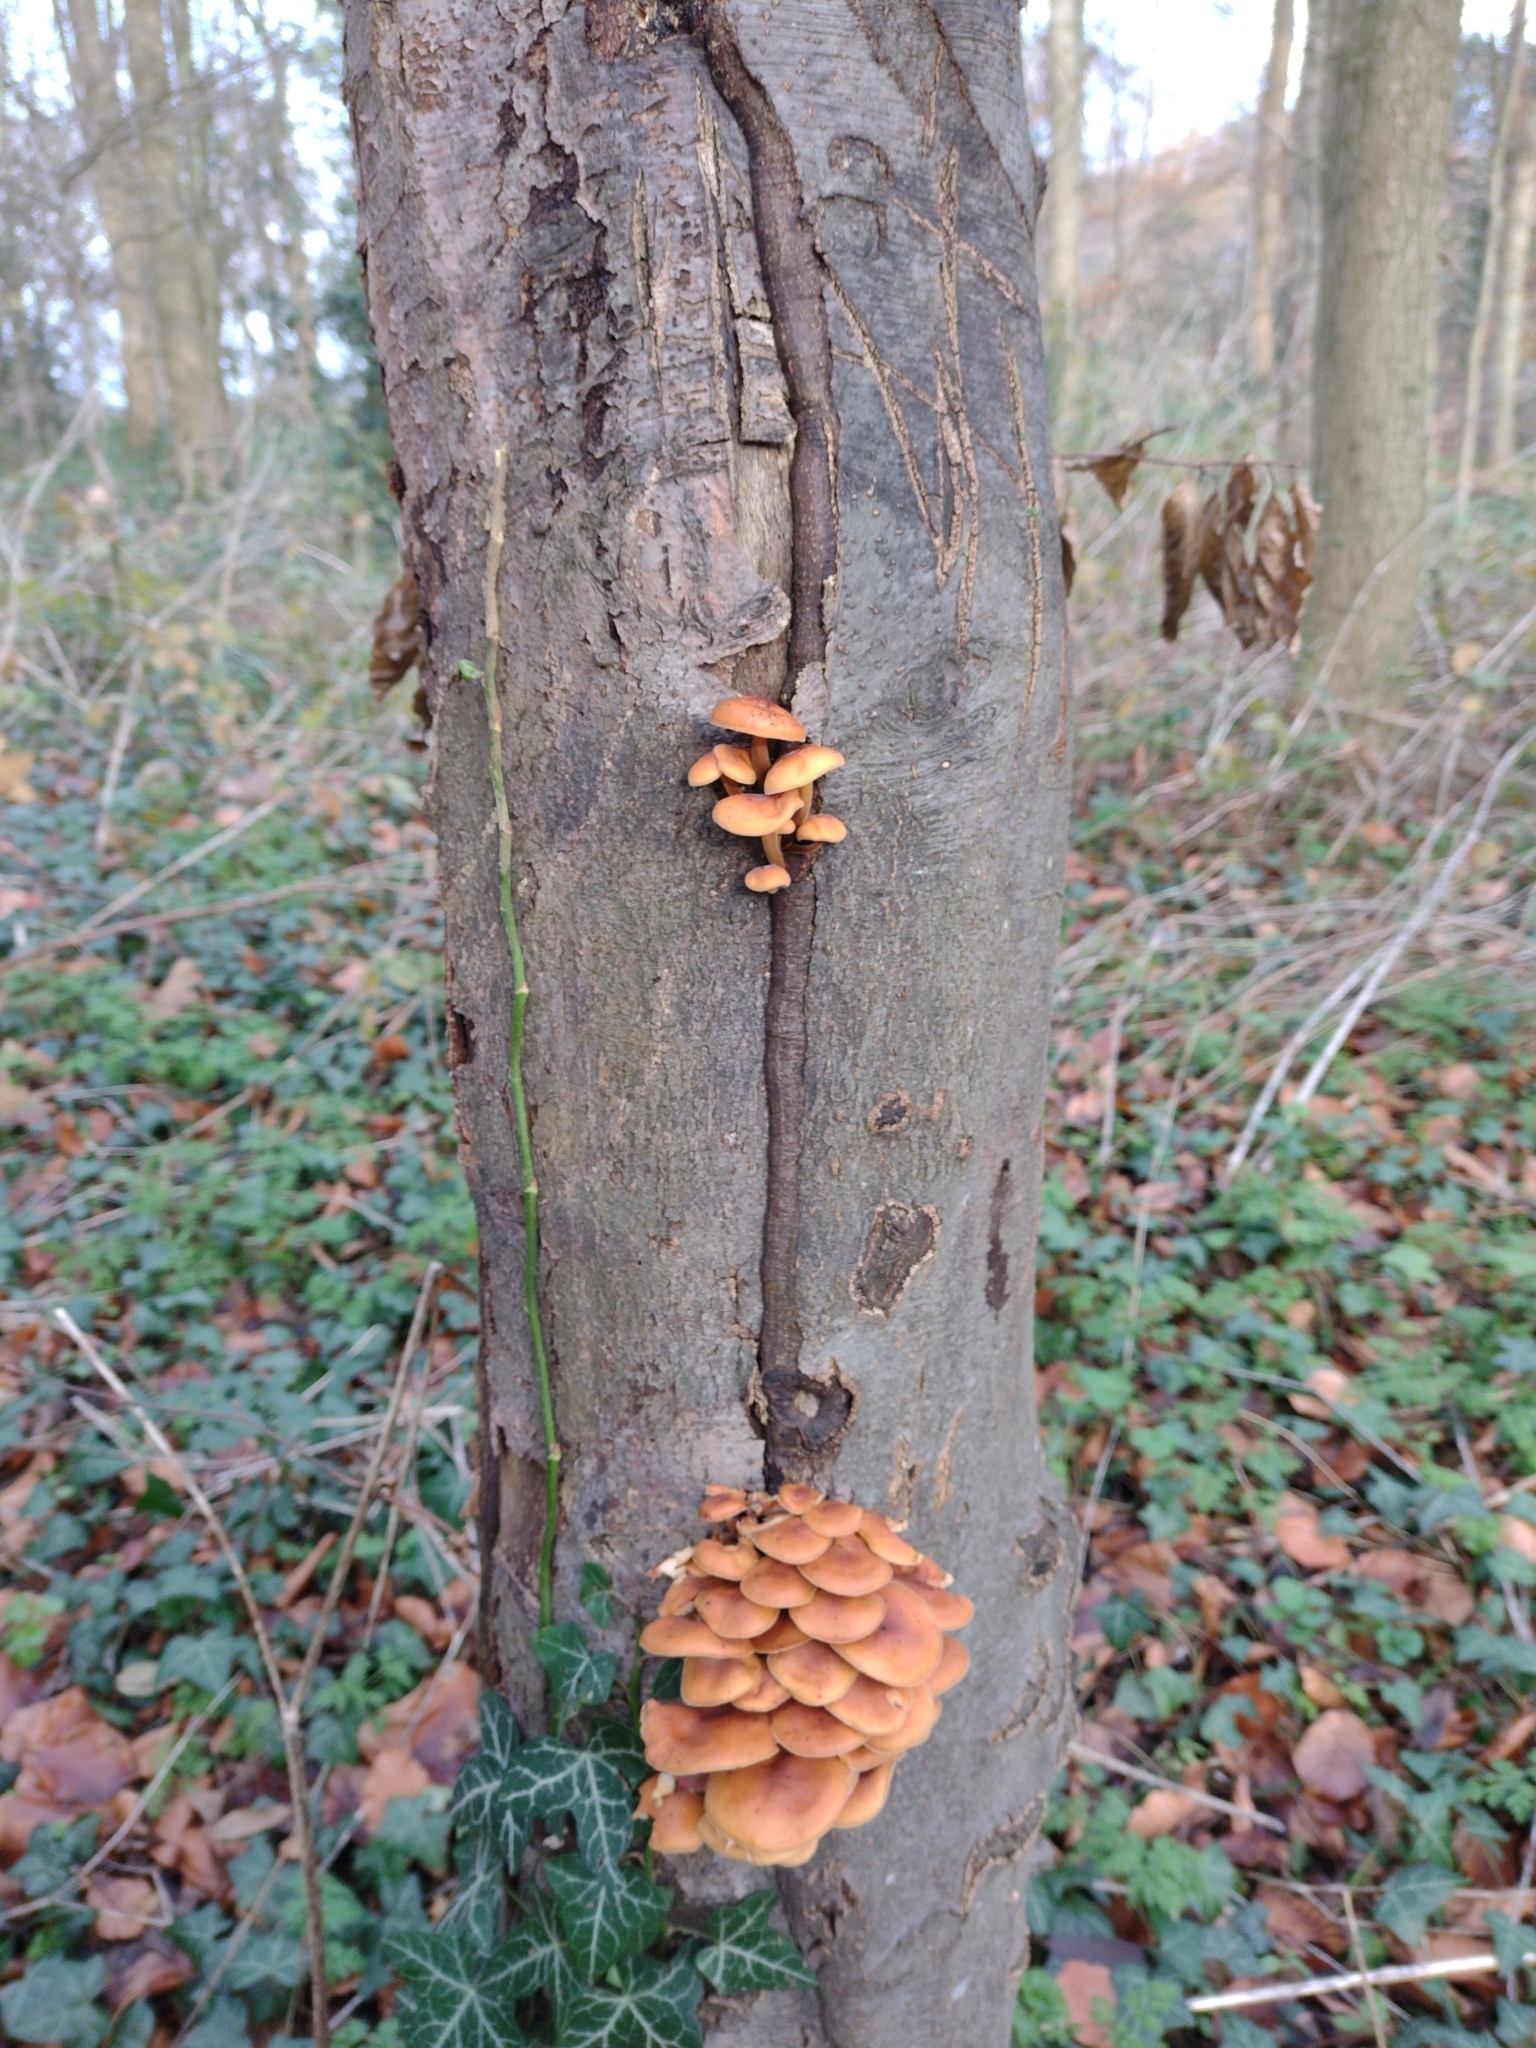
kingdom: Fungi
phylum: Basidiomycota
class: Agaricomycetes
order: Agaricales
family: Physalacriaceae
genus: Flammulina
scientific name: Flammulina
